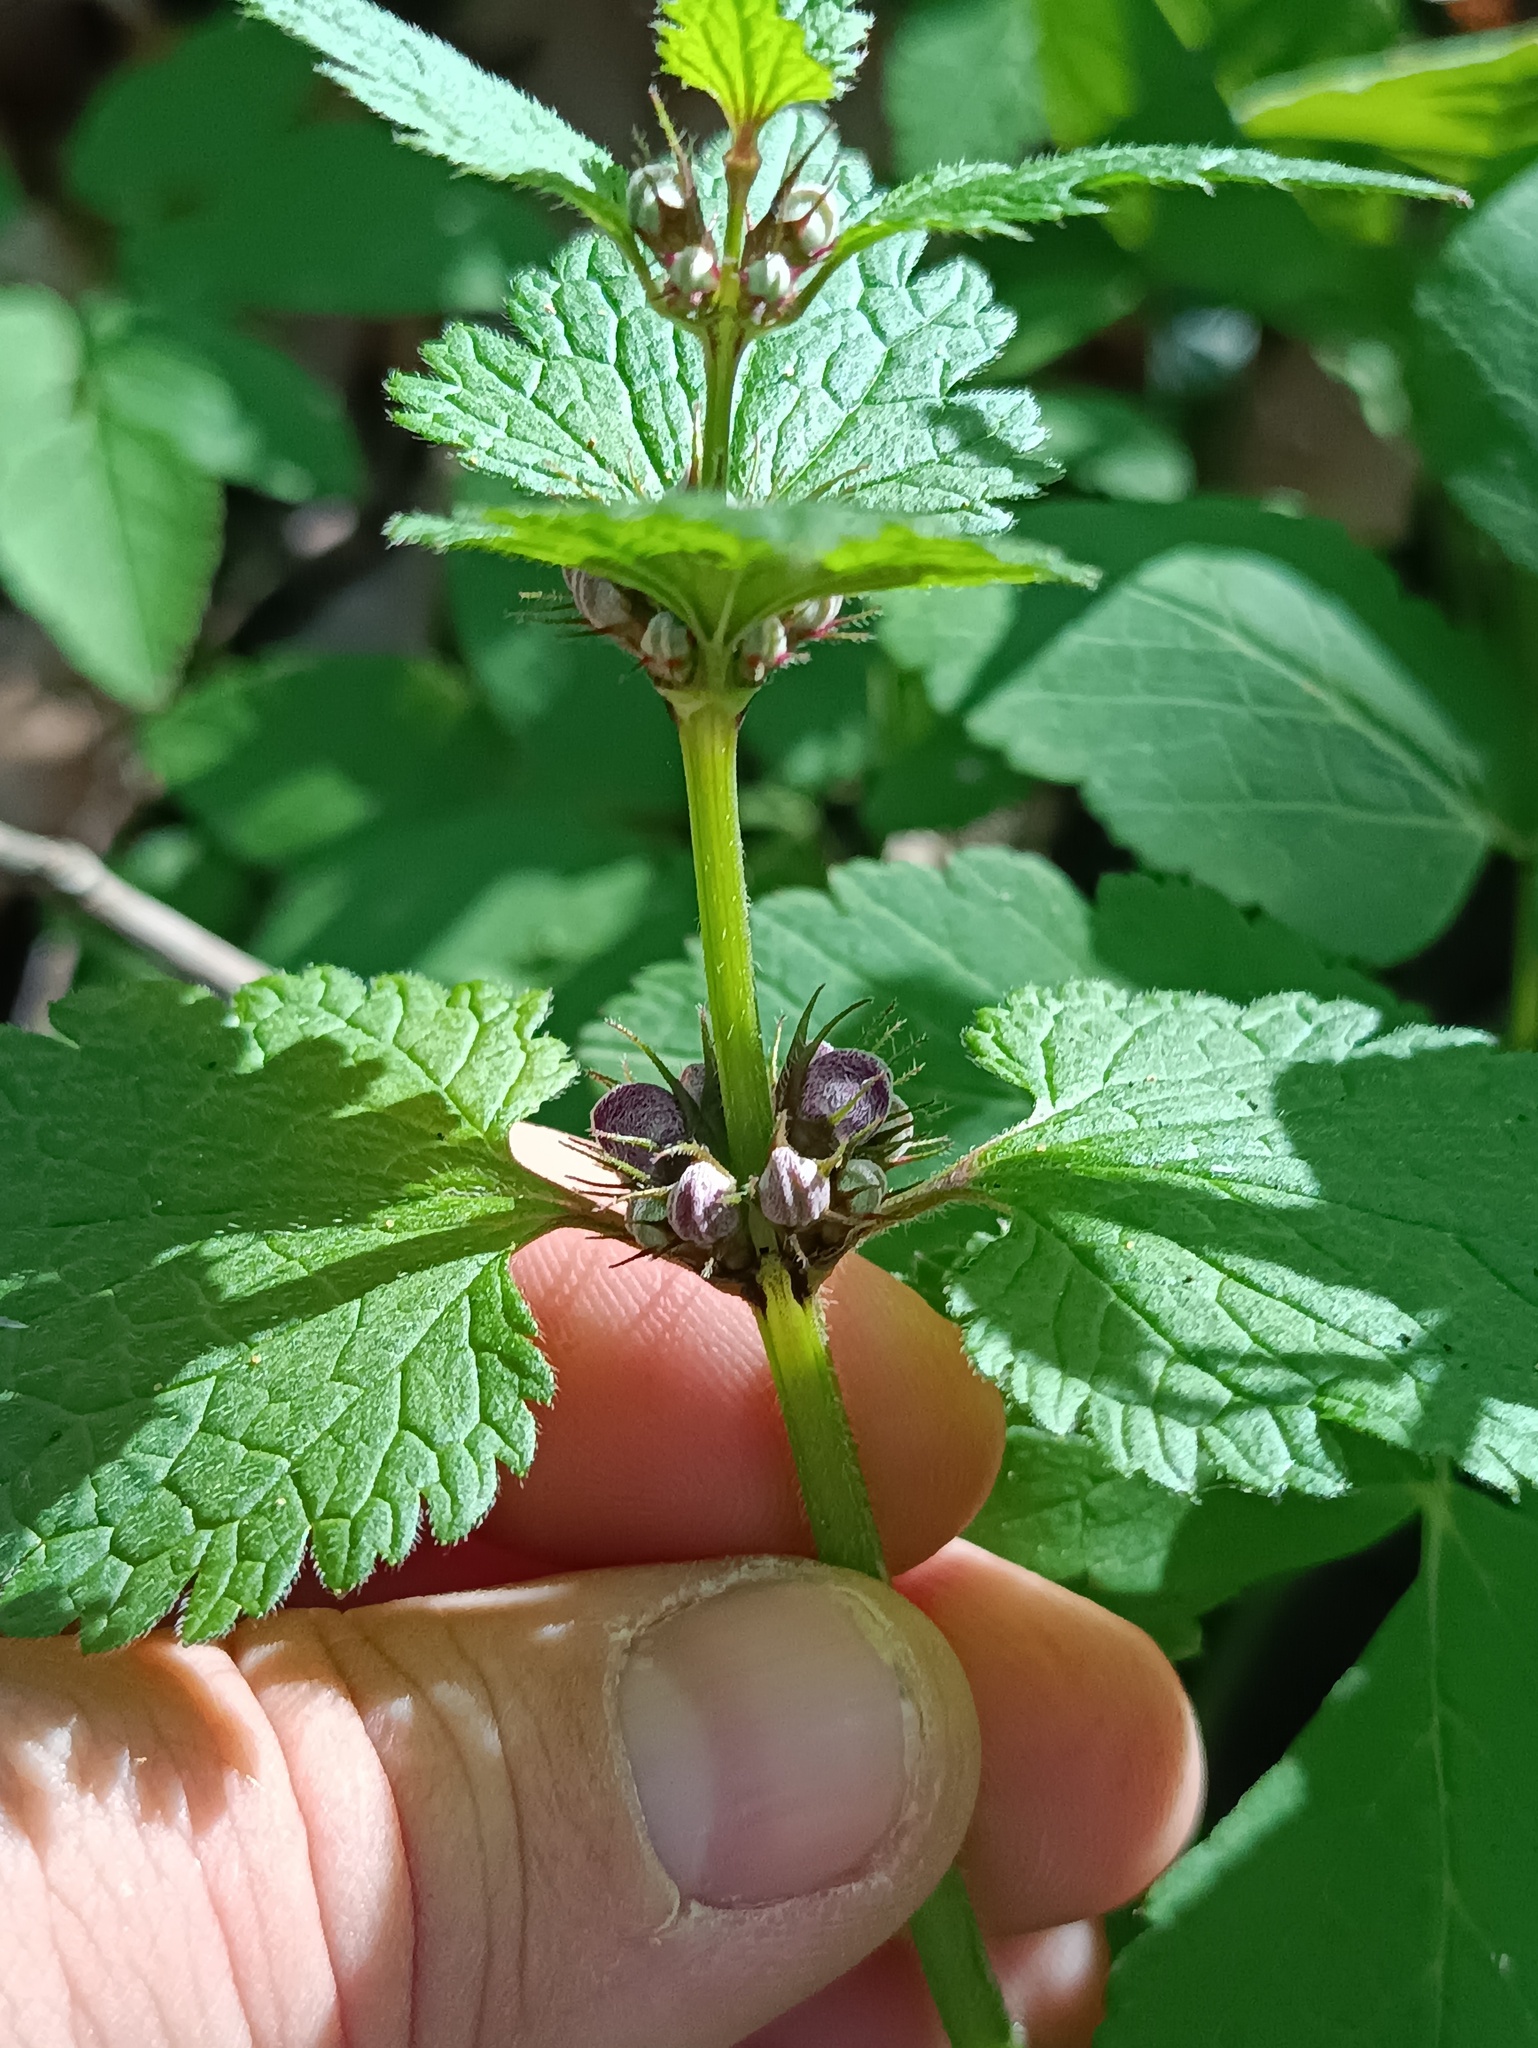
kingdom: Plantae
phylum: Tracheophyta
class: Magnoliopsida
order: Lamiales
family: Lamiaceae
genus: Lamium
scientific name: Lamium maculatum
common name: Spotted dead-nettle
